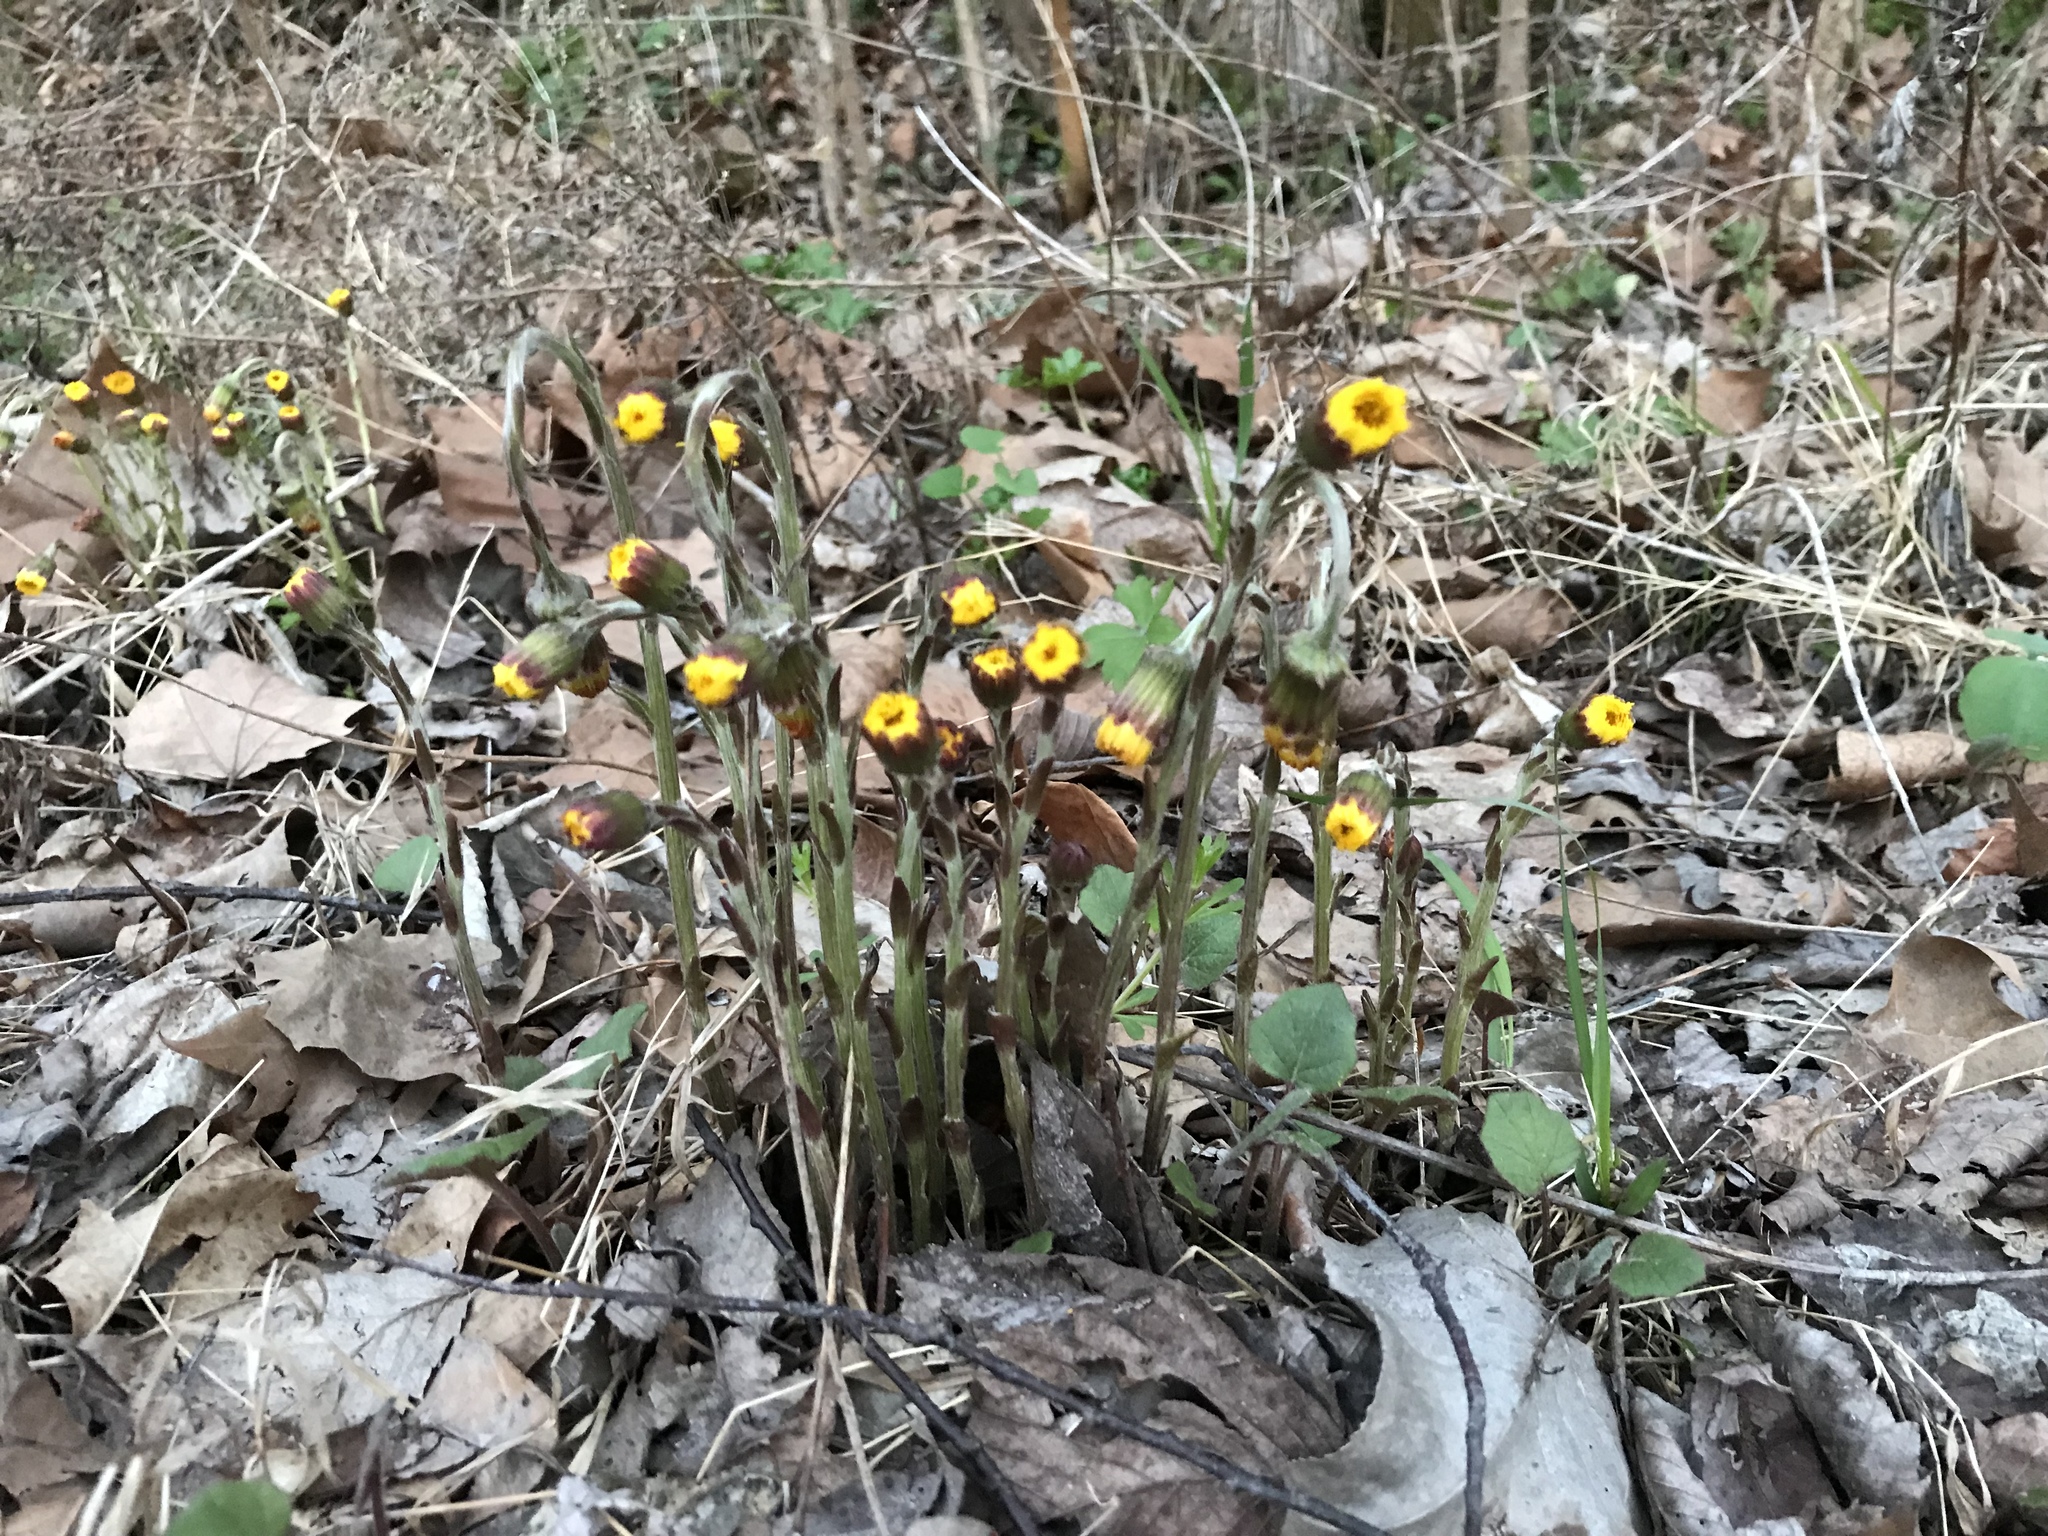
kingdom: Plantae
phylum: Tracheophyta
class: Magnoliopsida
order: Asterales
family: Asteraceae
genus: Tussilago
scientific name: Tussilago farfara
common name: Coltsfoot
